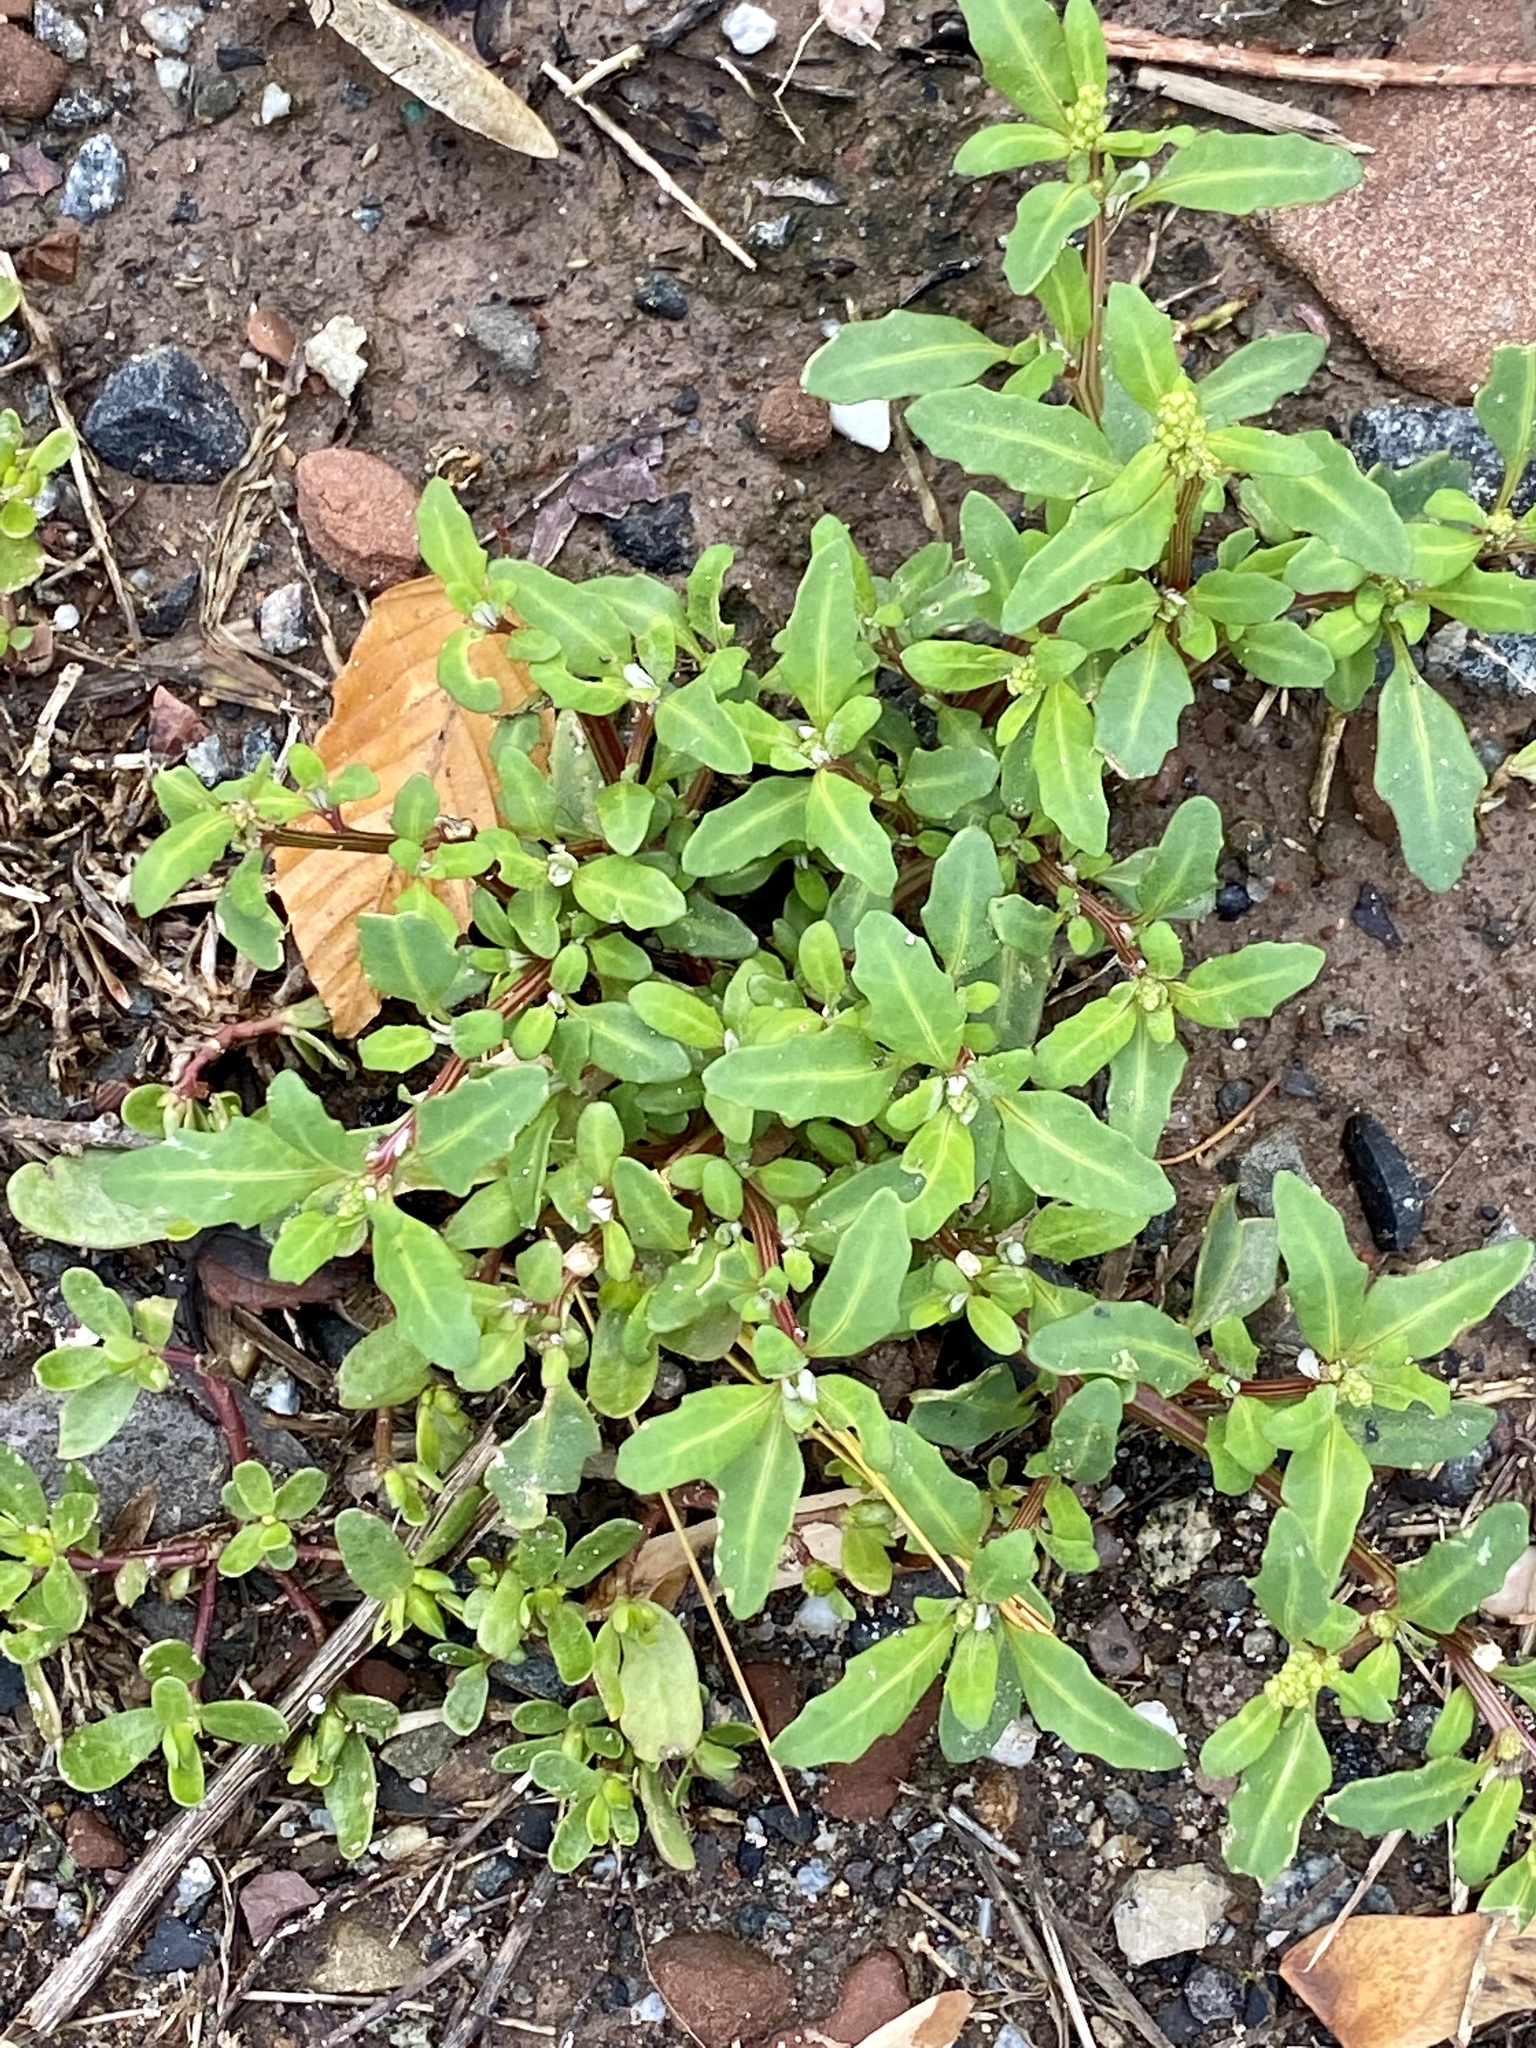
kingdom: Plantae
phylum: Tracheophyta
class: Magnoliopsida
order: Caryophyllales
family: Amaranthaceae
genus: Oxybasis
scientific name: Oxybasis glauca
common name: Glaucous goosefoot
